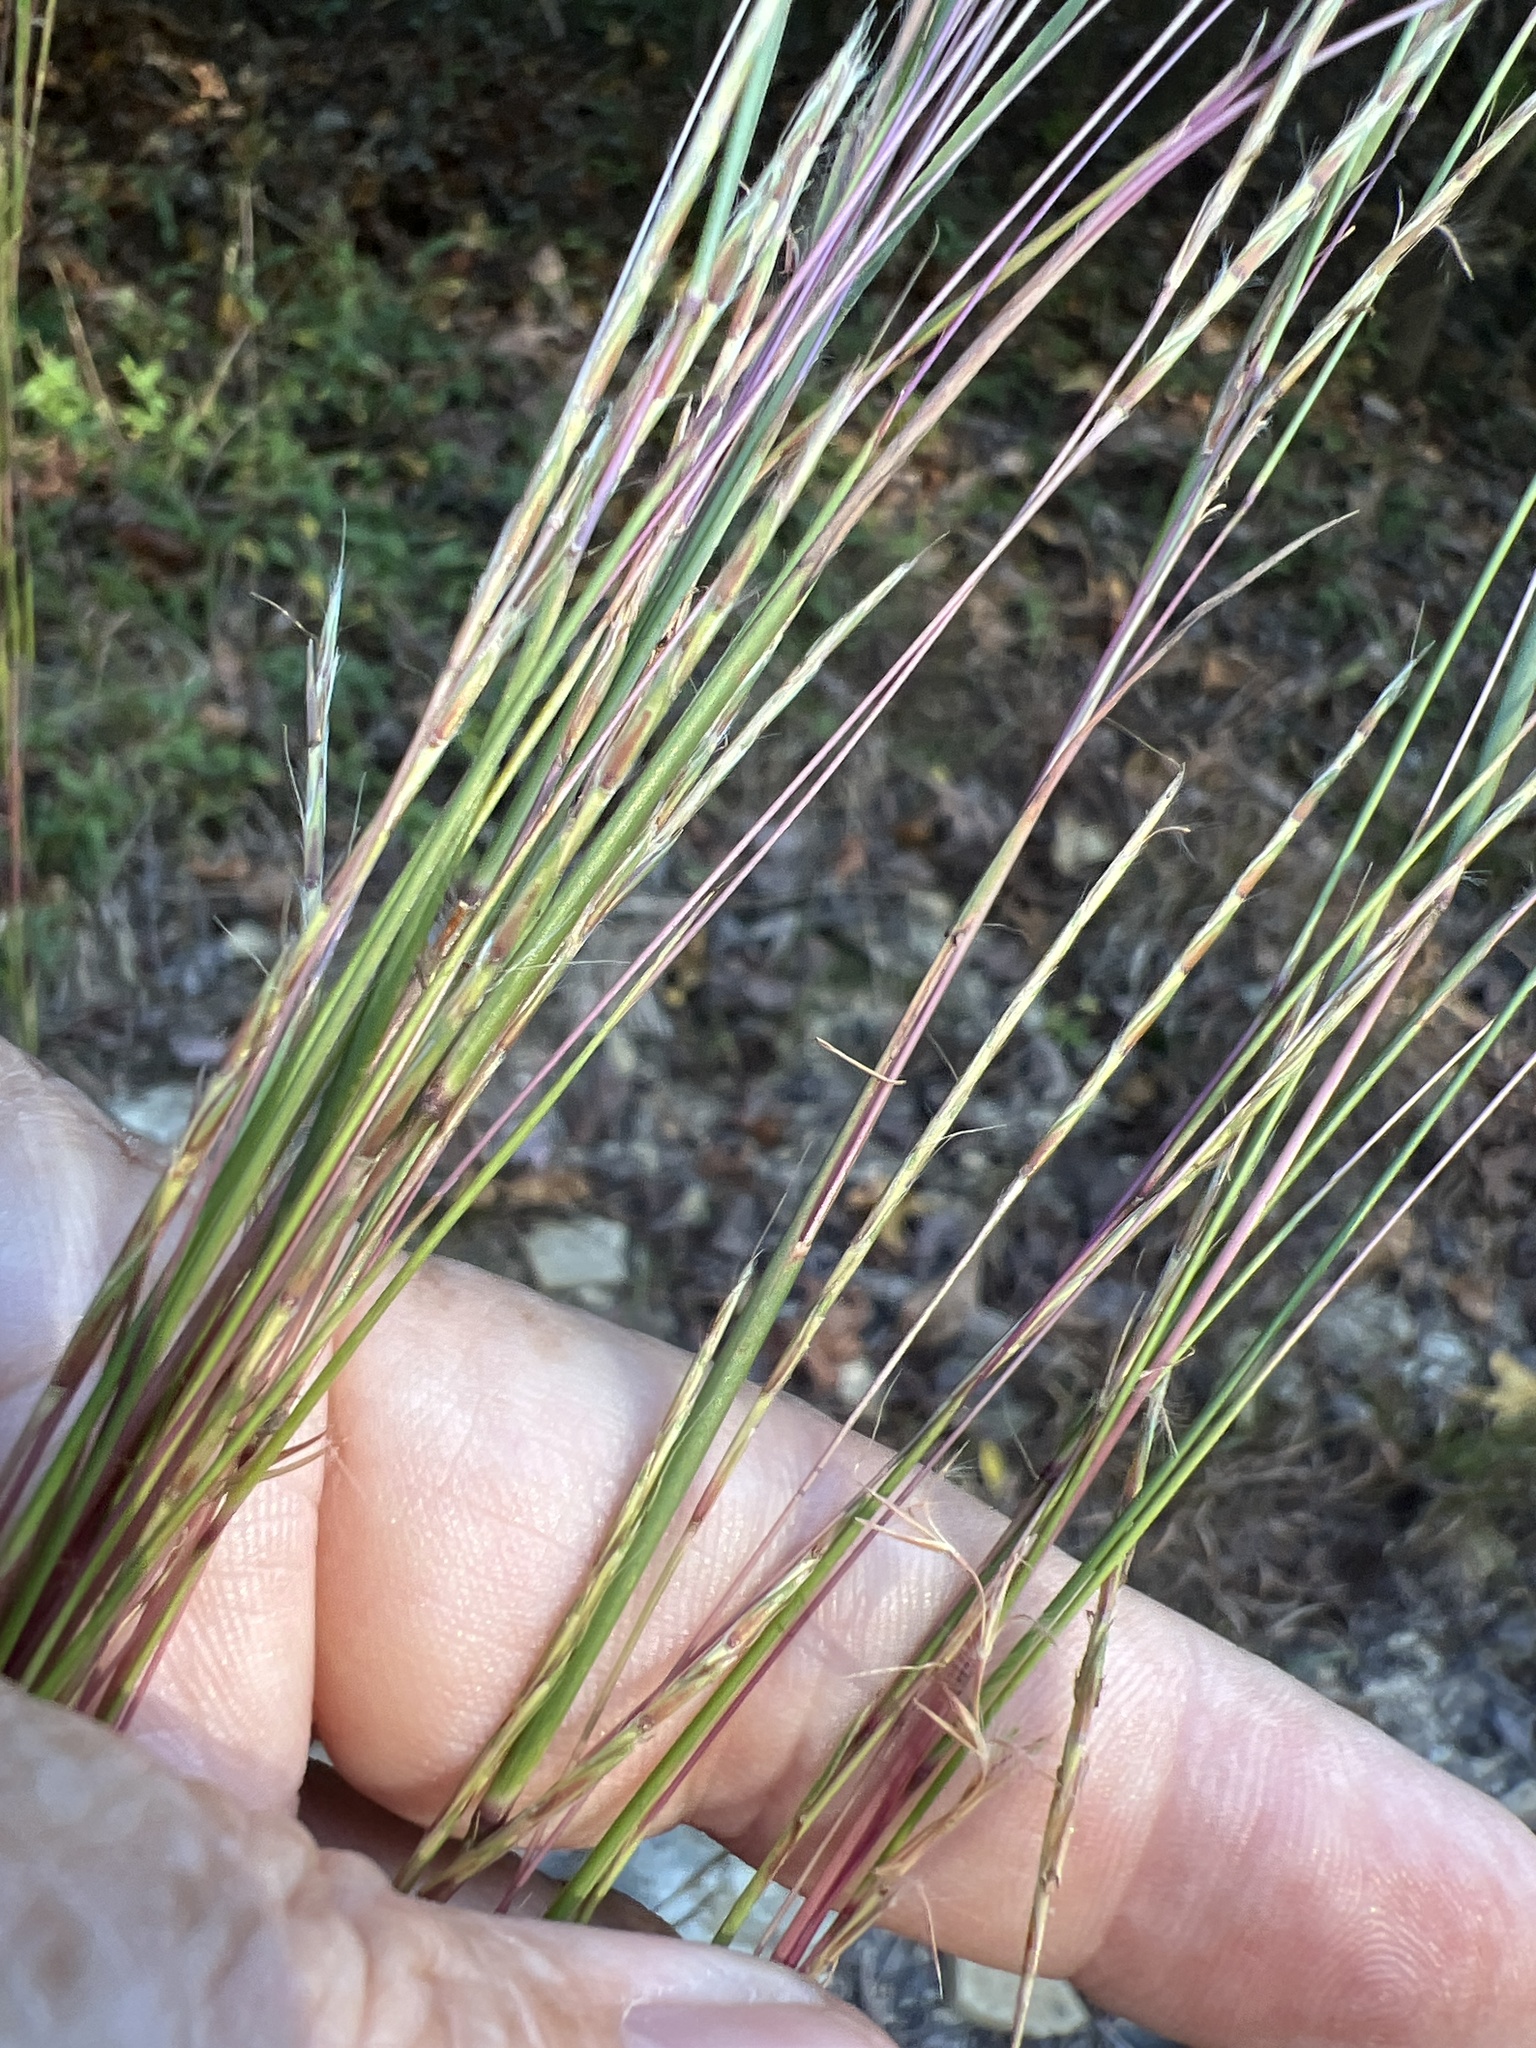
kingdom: Plantae
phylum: Tracheophyta
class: Liliopsida
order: Poales
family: Poaceae
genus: Schizachyrium
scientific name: Schizachyrium scoparium
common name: Little bluestem
